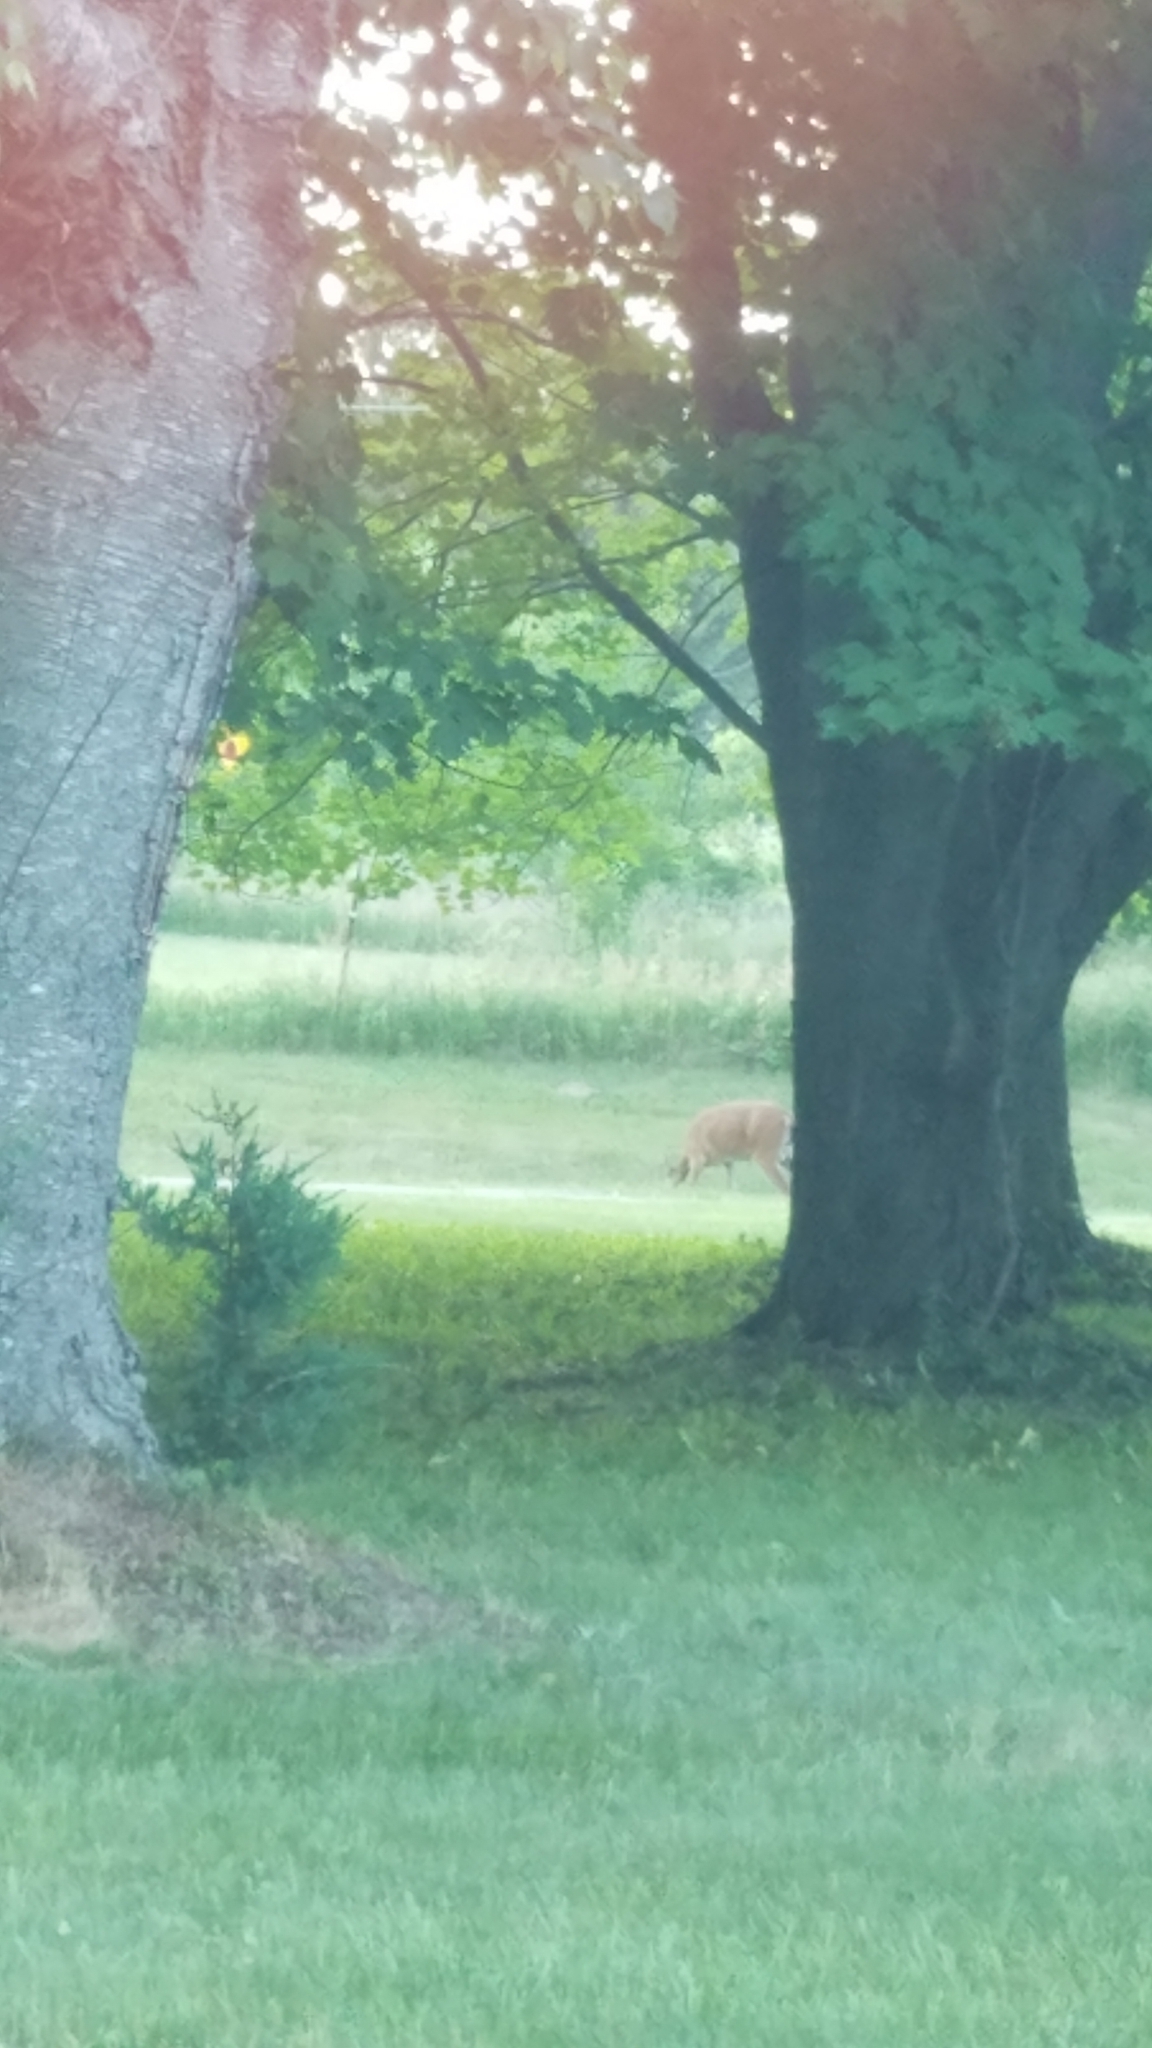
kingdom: Animalia
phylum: Chordata
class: Mammalia
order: Artiodactyla
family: Cervidae
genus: Odocoileus
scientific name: Odocoileus virginianus
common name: White-tailed deer
